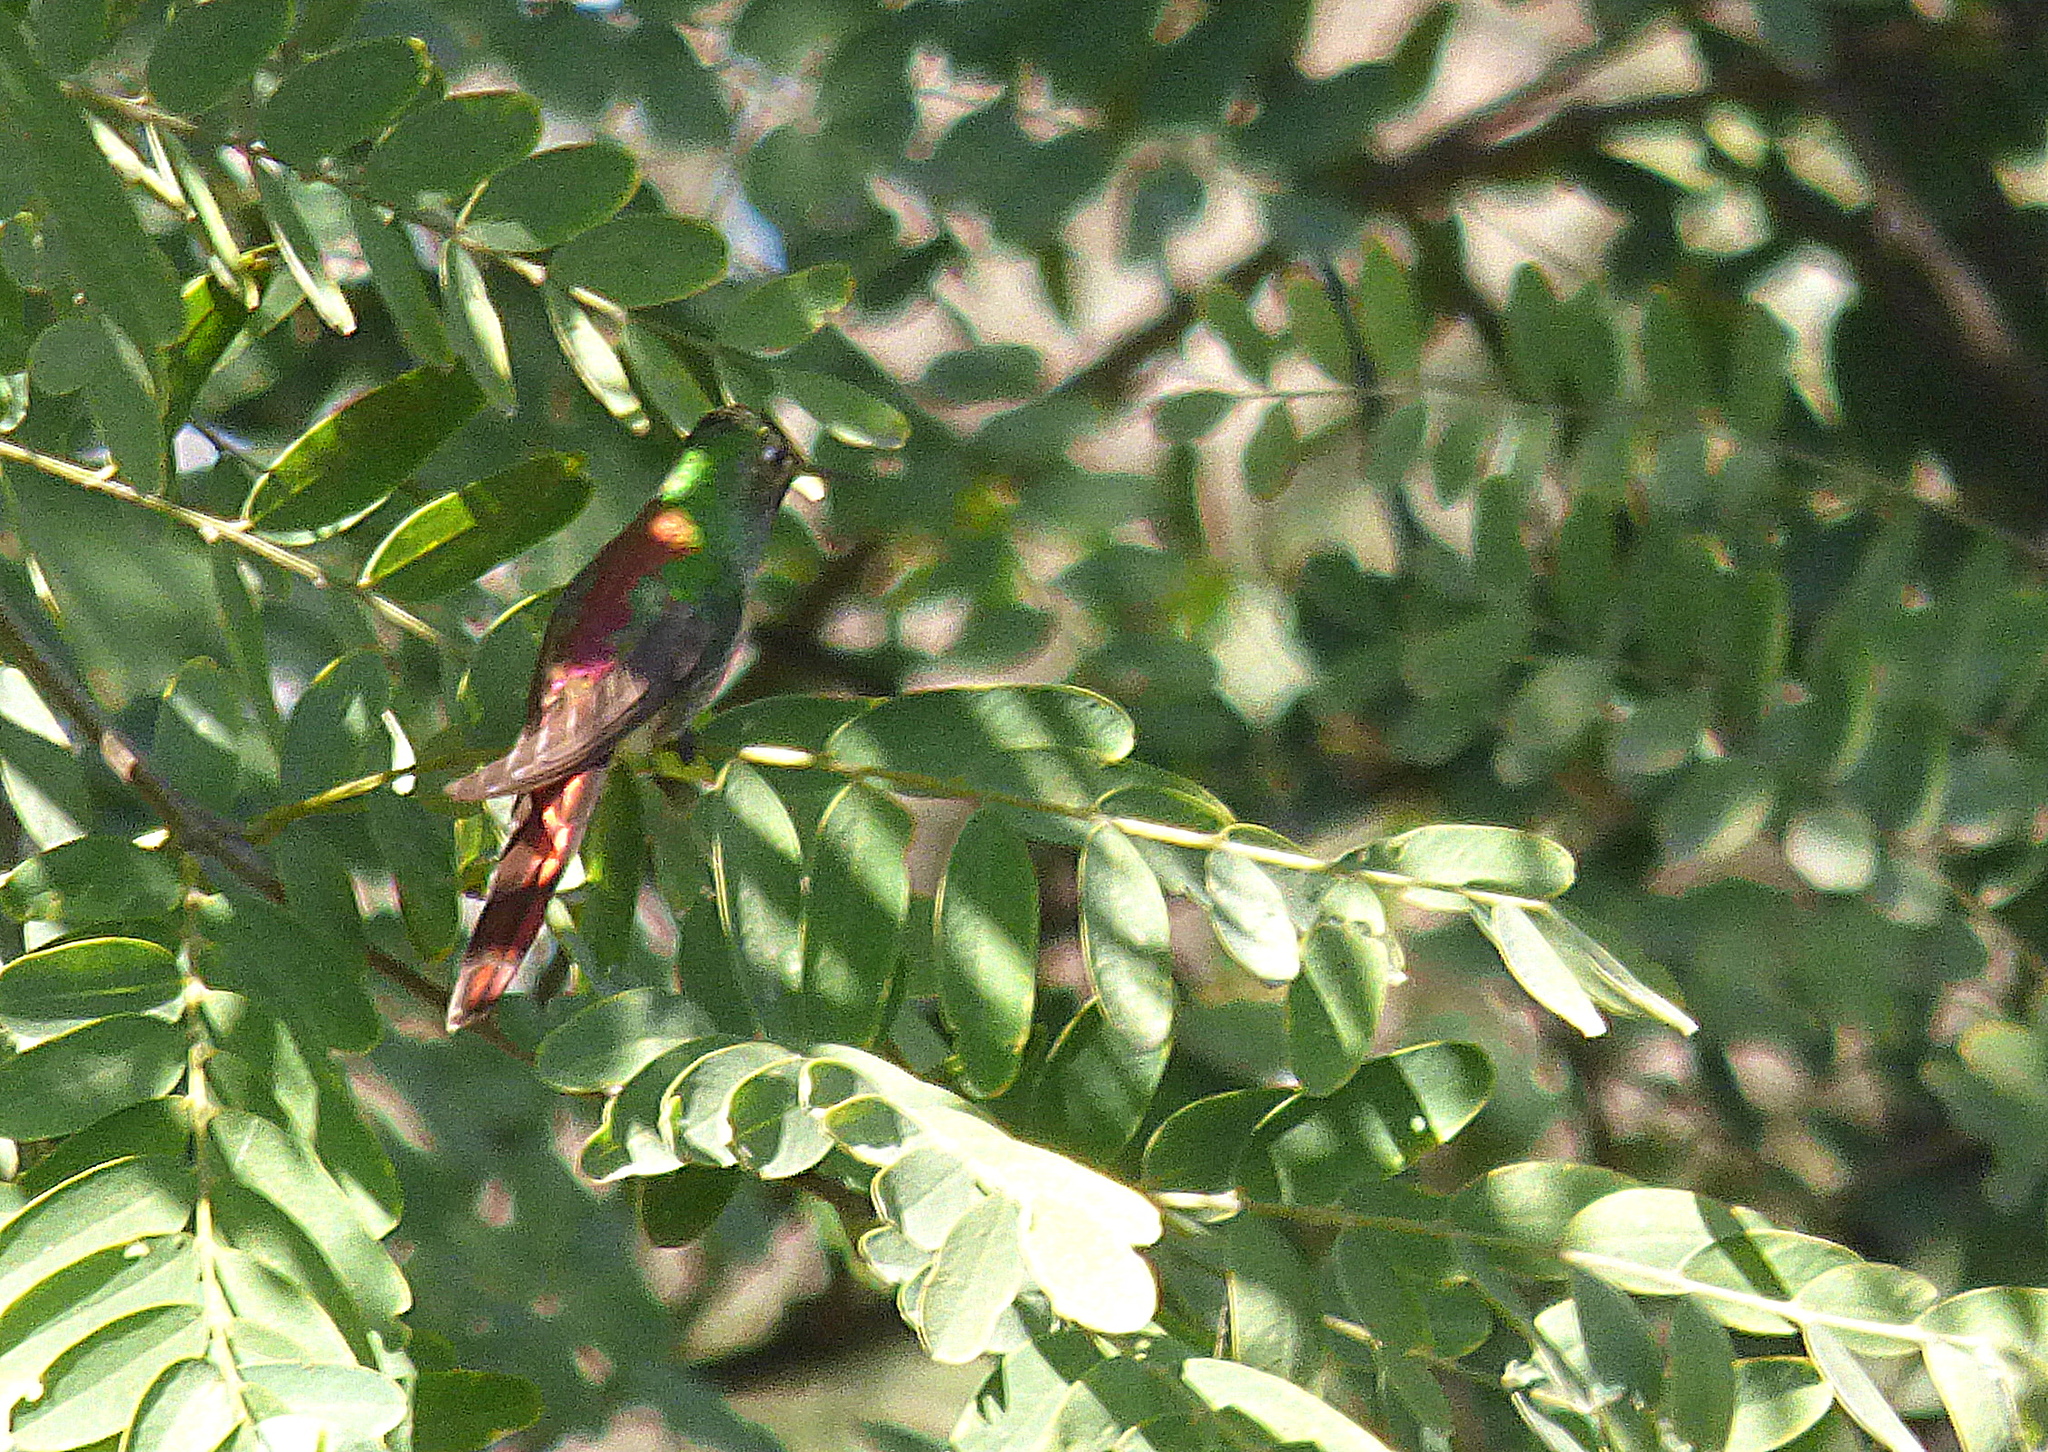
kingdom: Animalia
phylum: Chordata
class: Aves
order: Apodiformes
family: Trochilidae
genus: Sappho
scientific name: Sappho sparganurus
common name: Red-tailed comet
